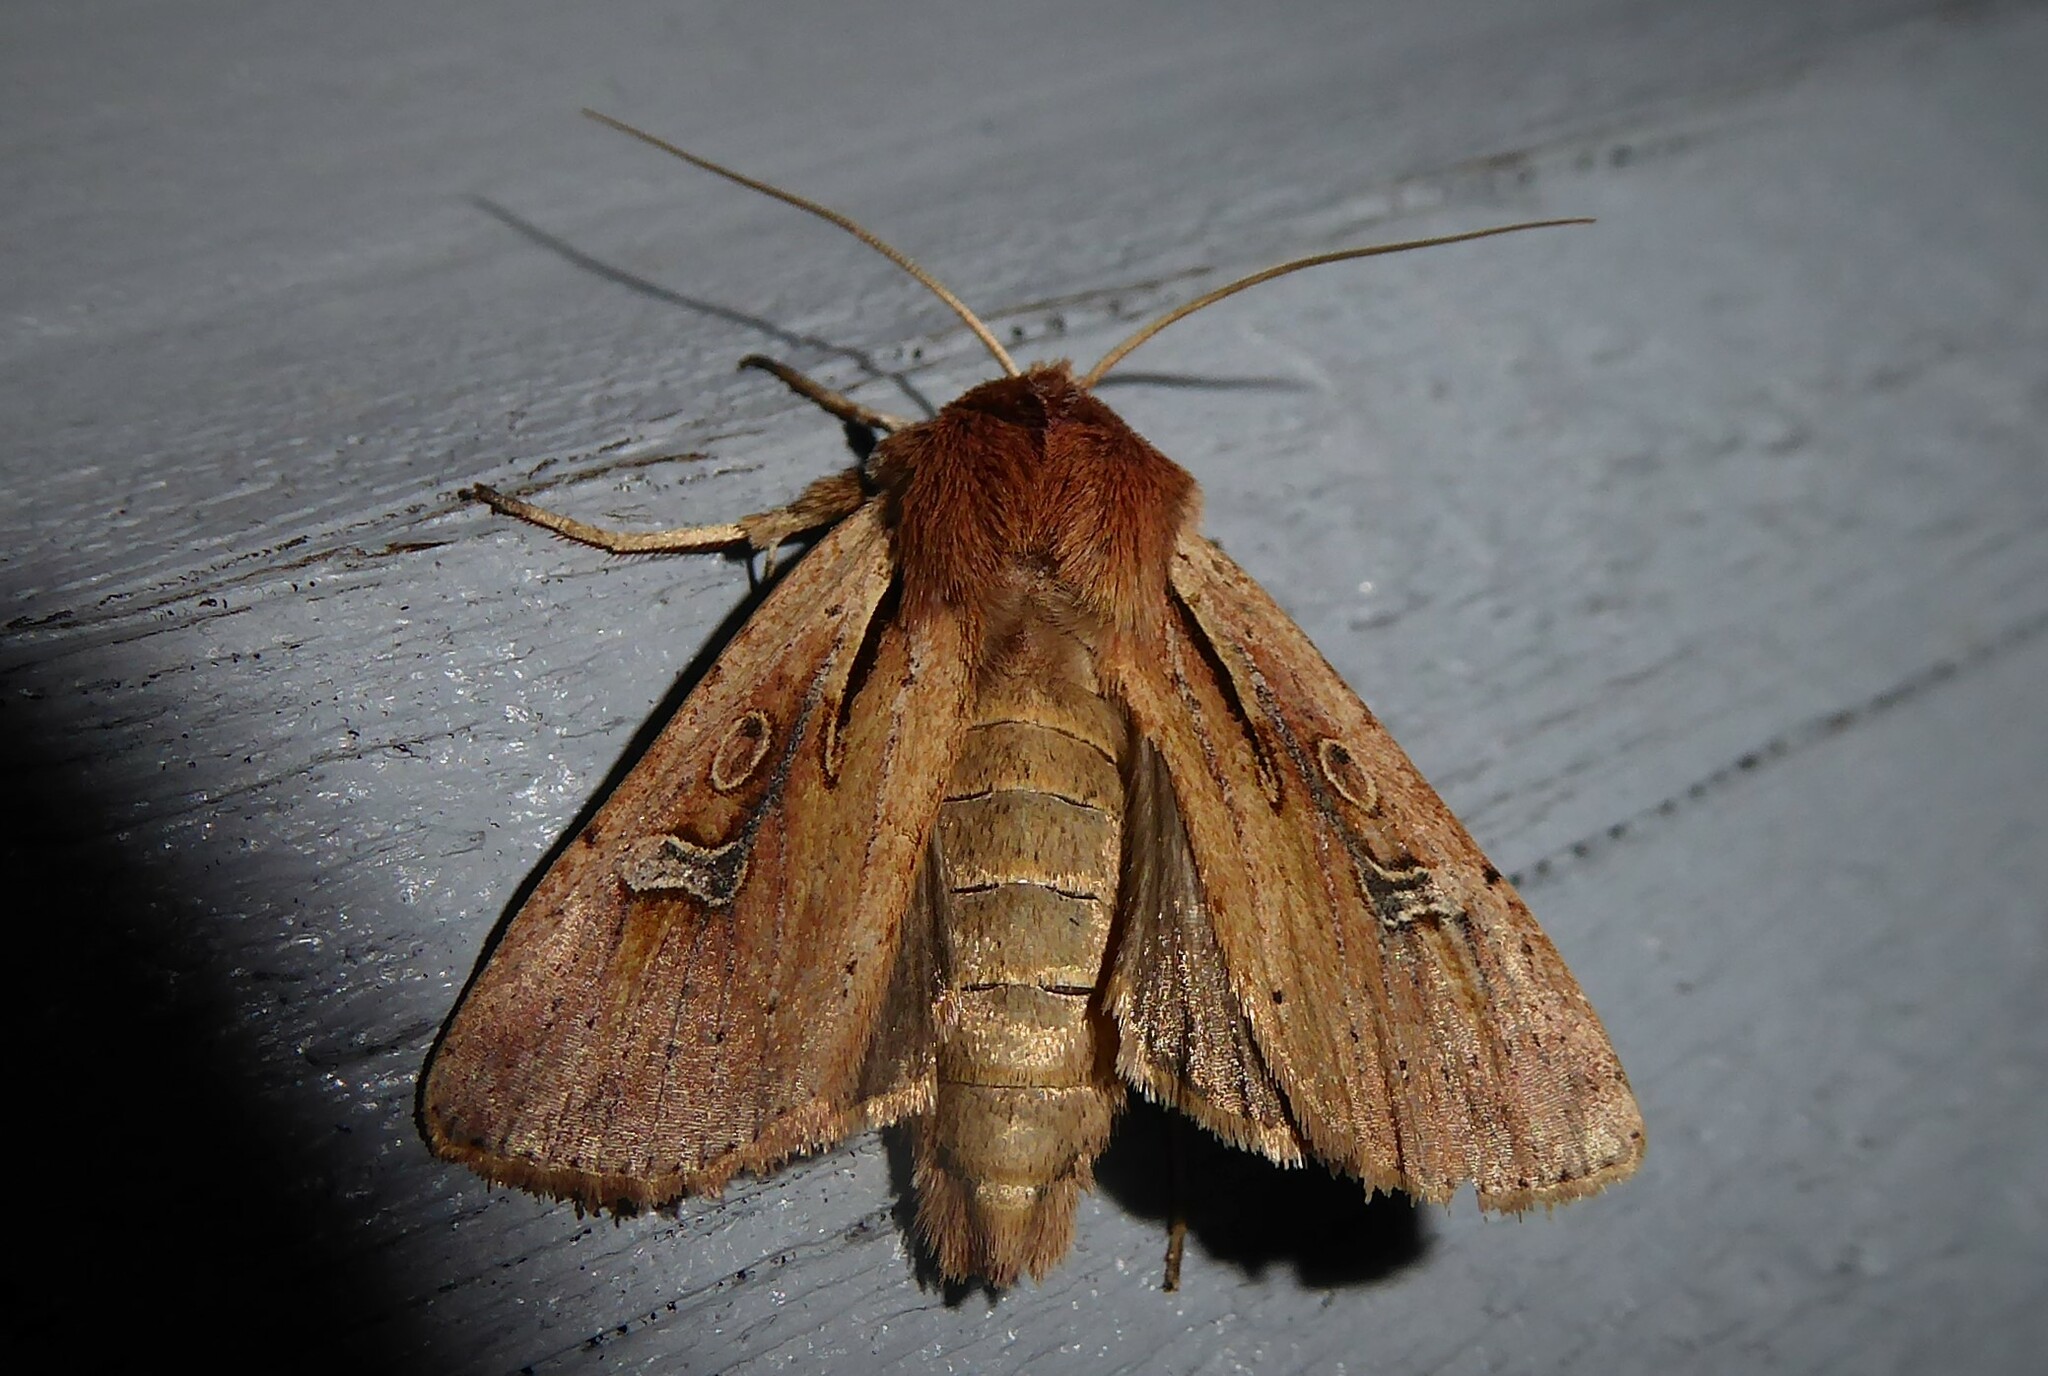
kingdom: Animalia
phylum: Arthropoda
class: Insecta
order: Lepidoptera
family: Noctuidae
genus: Ichneutica
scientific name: Ichneutica atristriga
